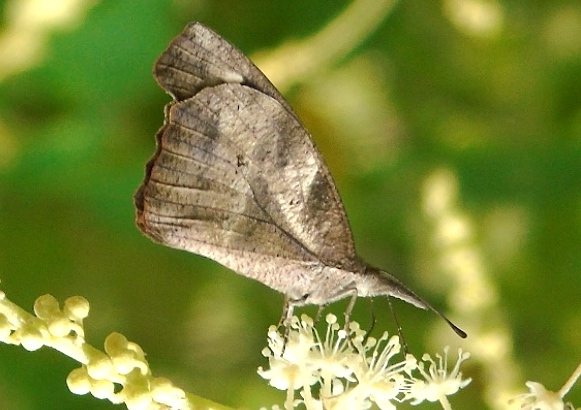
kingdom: Animalia
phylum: Arthropoda
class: Insecta
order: Lepidoptera
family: Nymphalidae
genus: Libytheana
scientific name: Libytheana carinenta
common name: American snout
